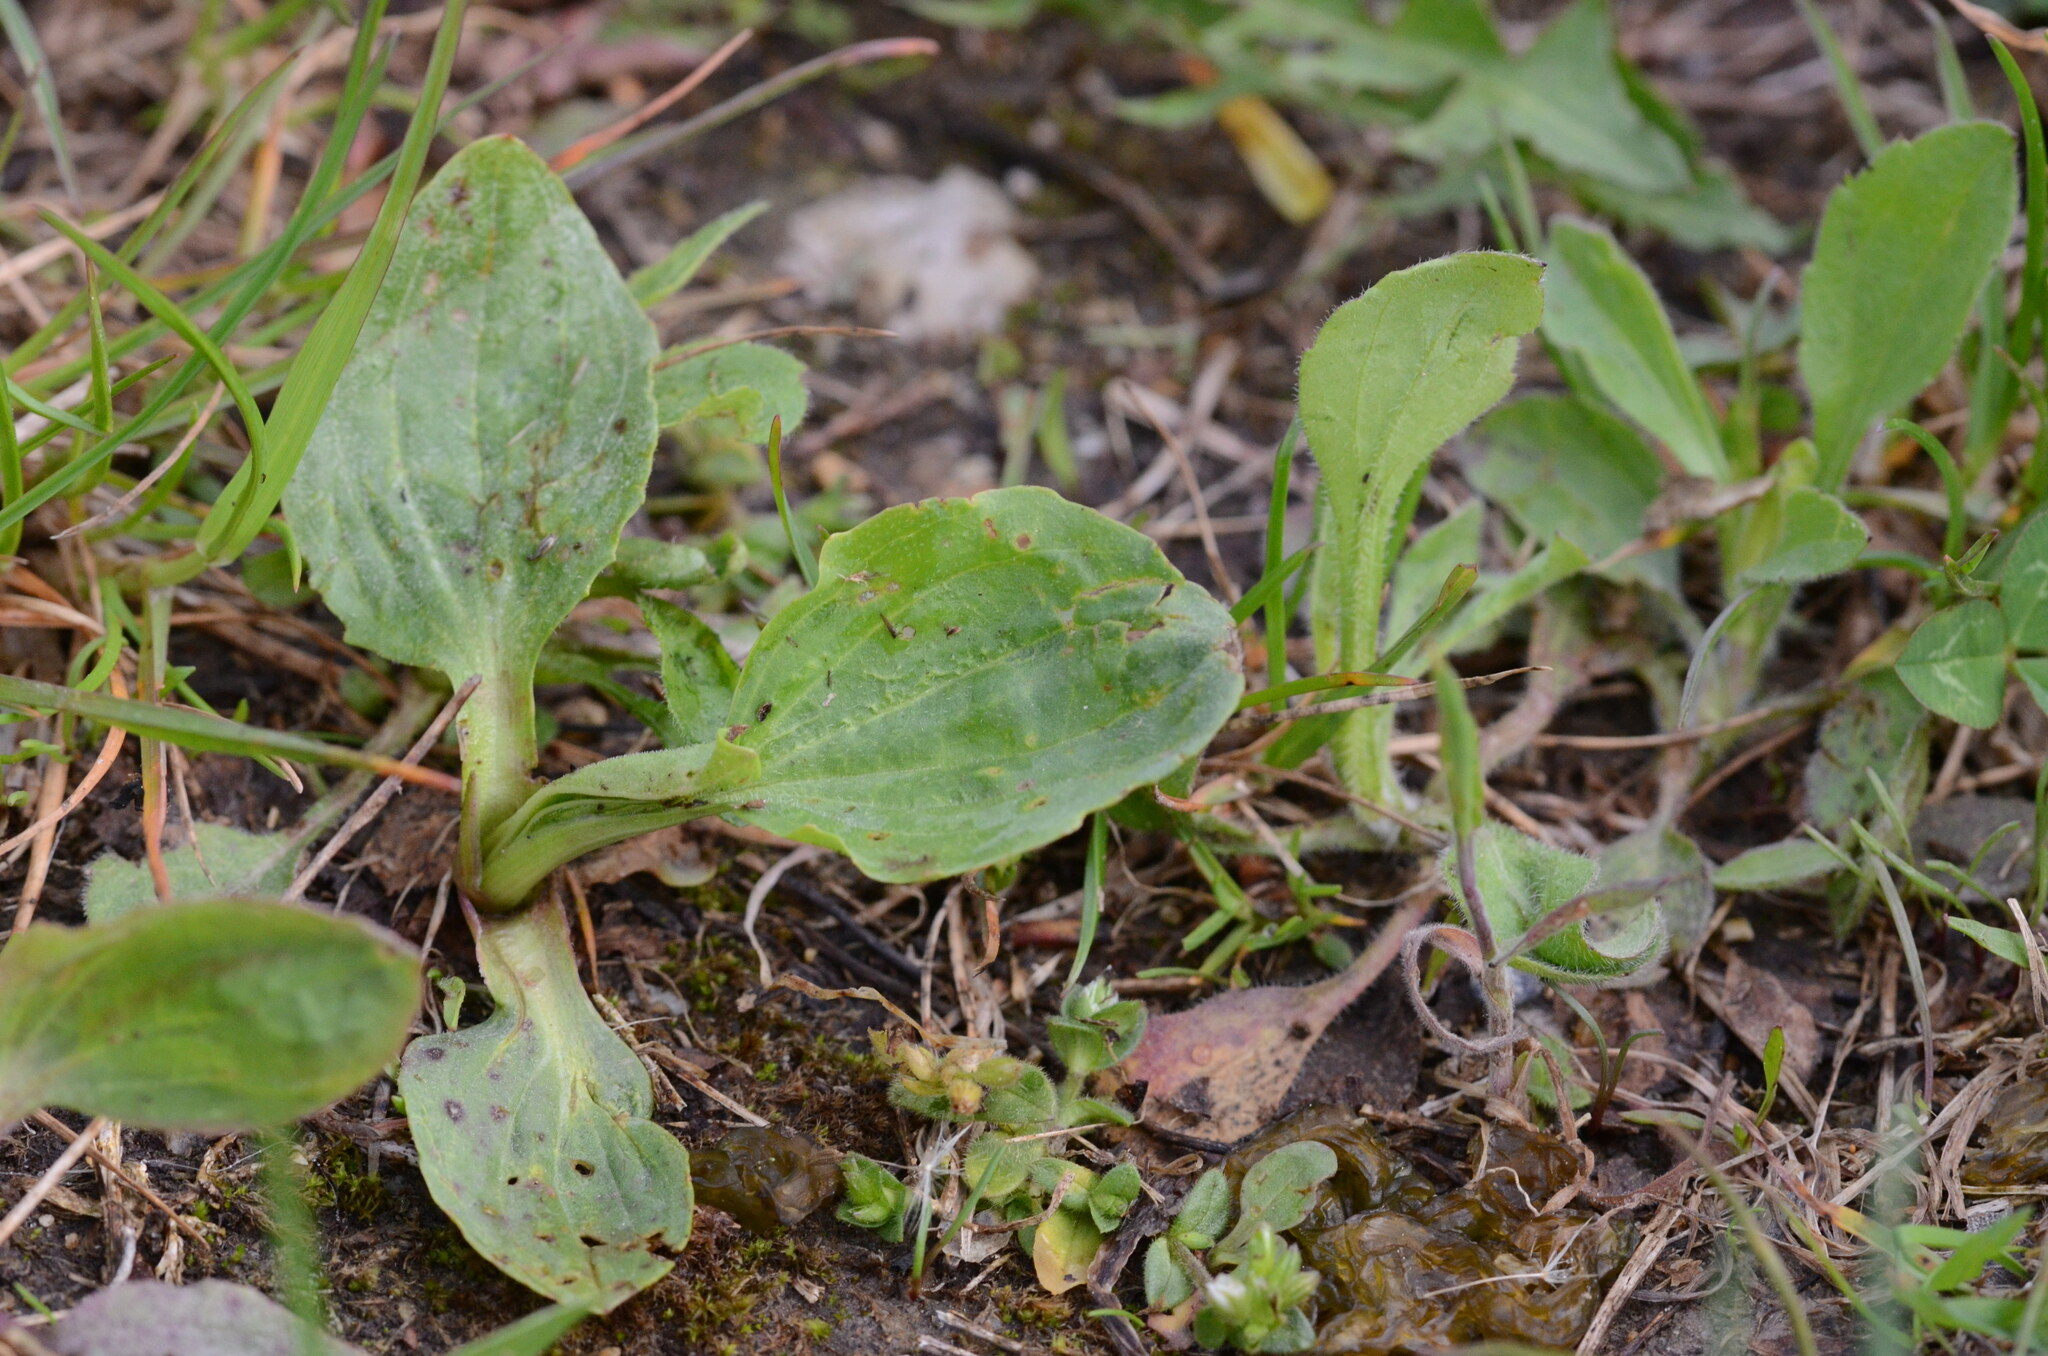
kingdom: Plantae
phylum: Tracheophyta
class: Magnoliopsida
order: Lamiales
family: Plantaginaceae
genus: Plantago
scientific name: Plantago major
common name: Common plantain
